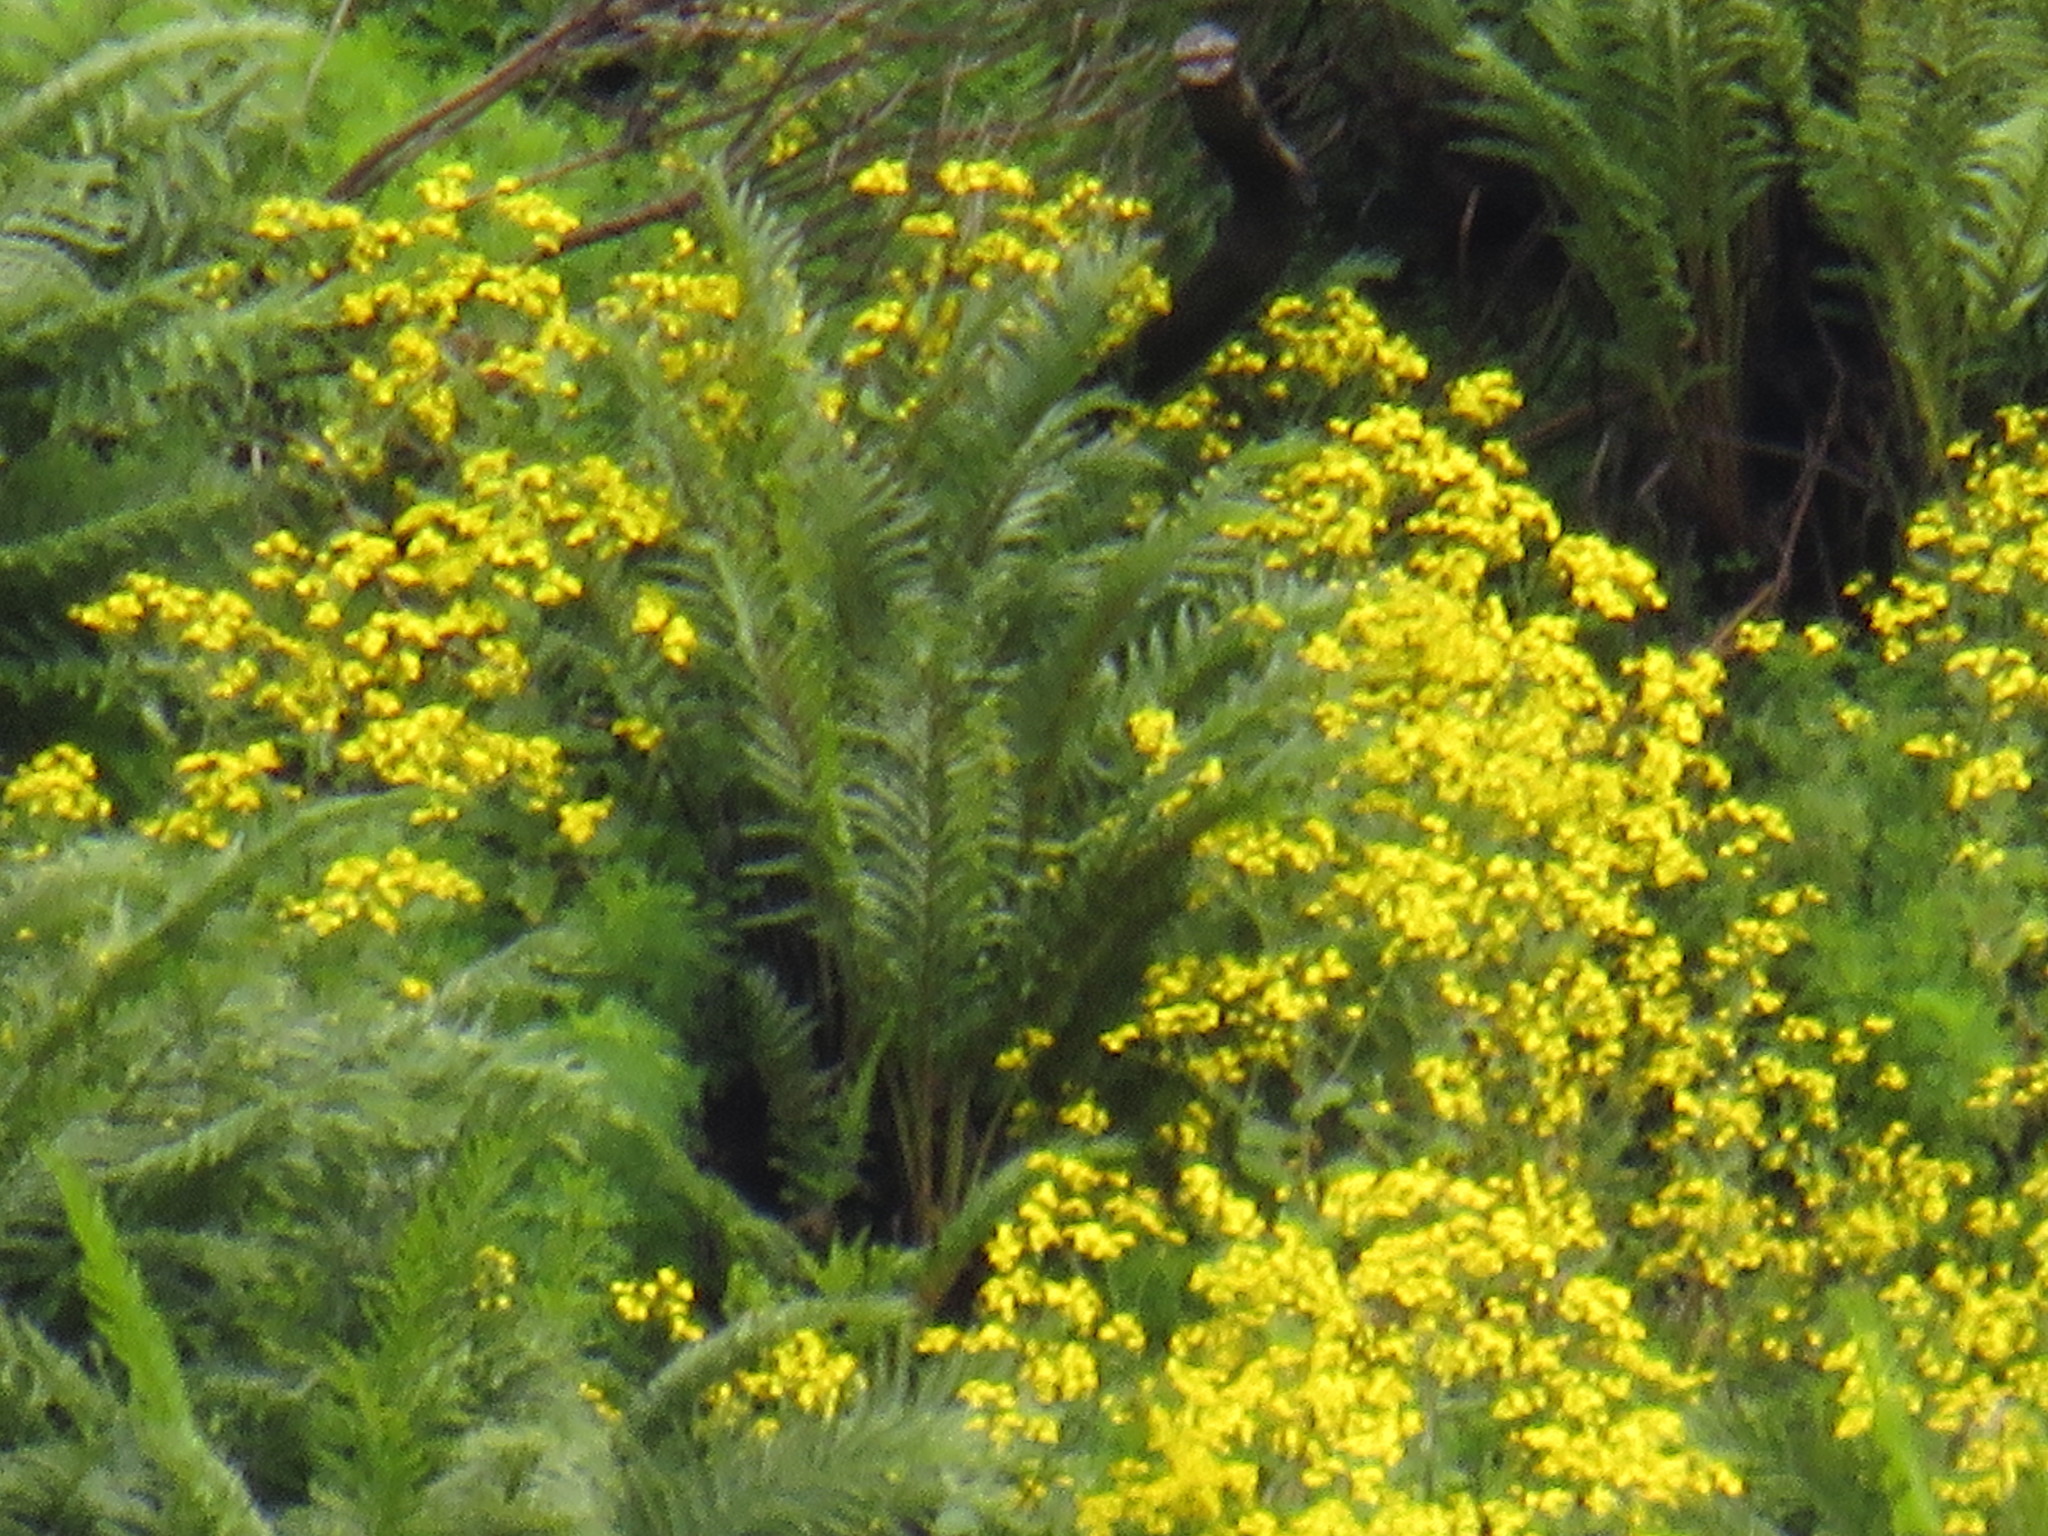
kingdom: Plantae
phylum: Tracheophyta
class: Polypodiopsida
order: Osmundales
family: Osmundaceae
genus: Todea
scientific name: Todea barbara
